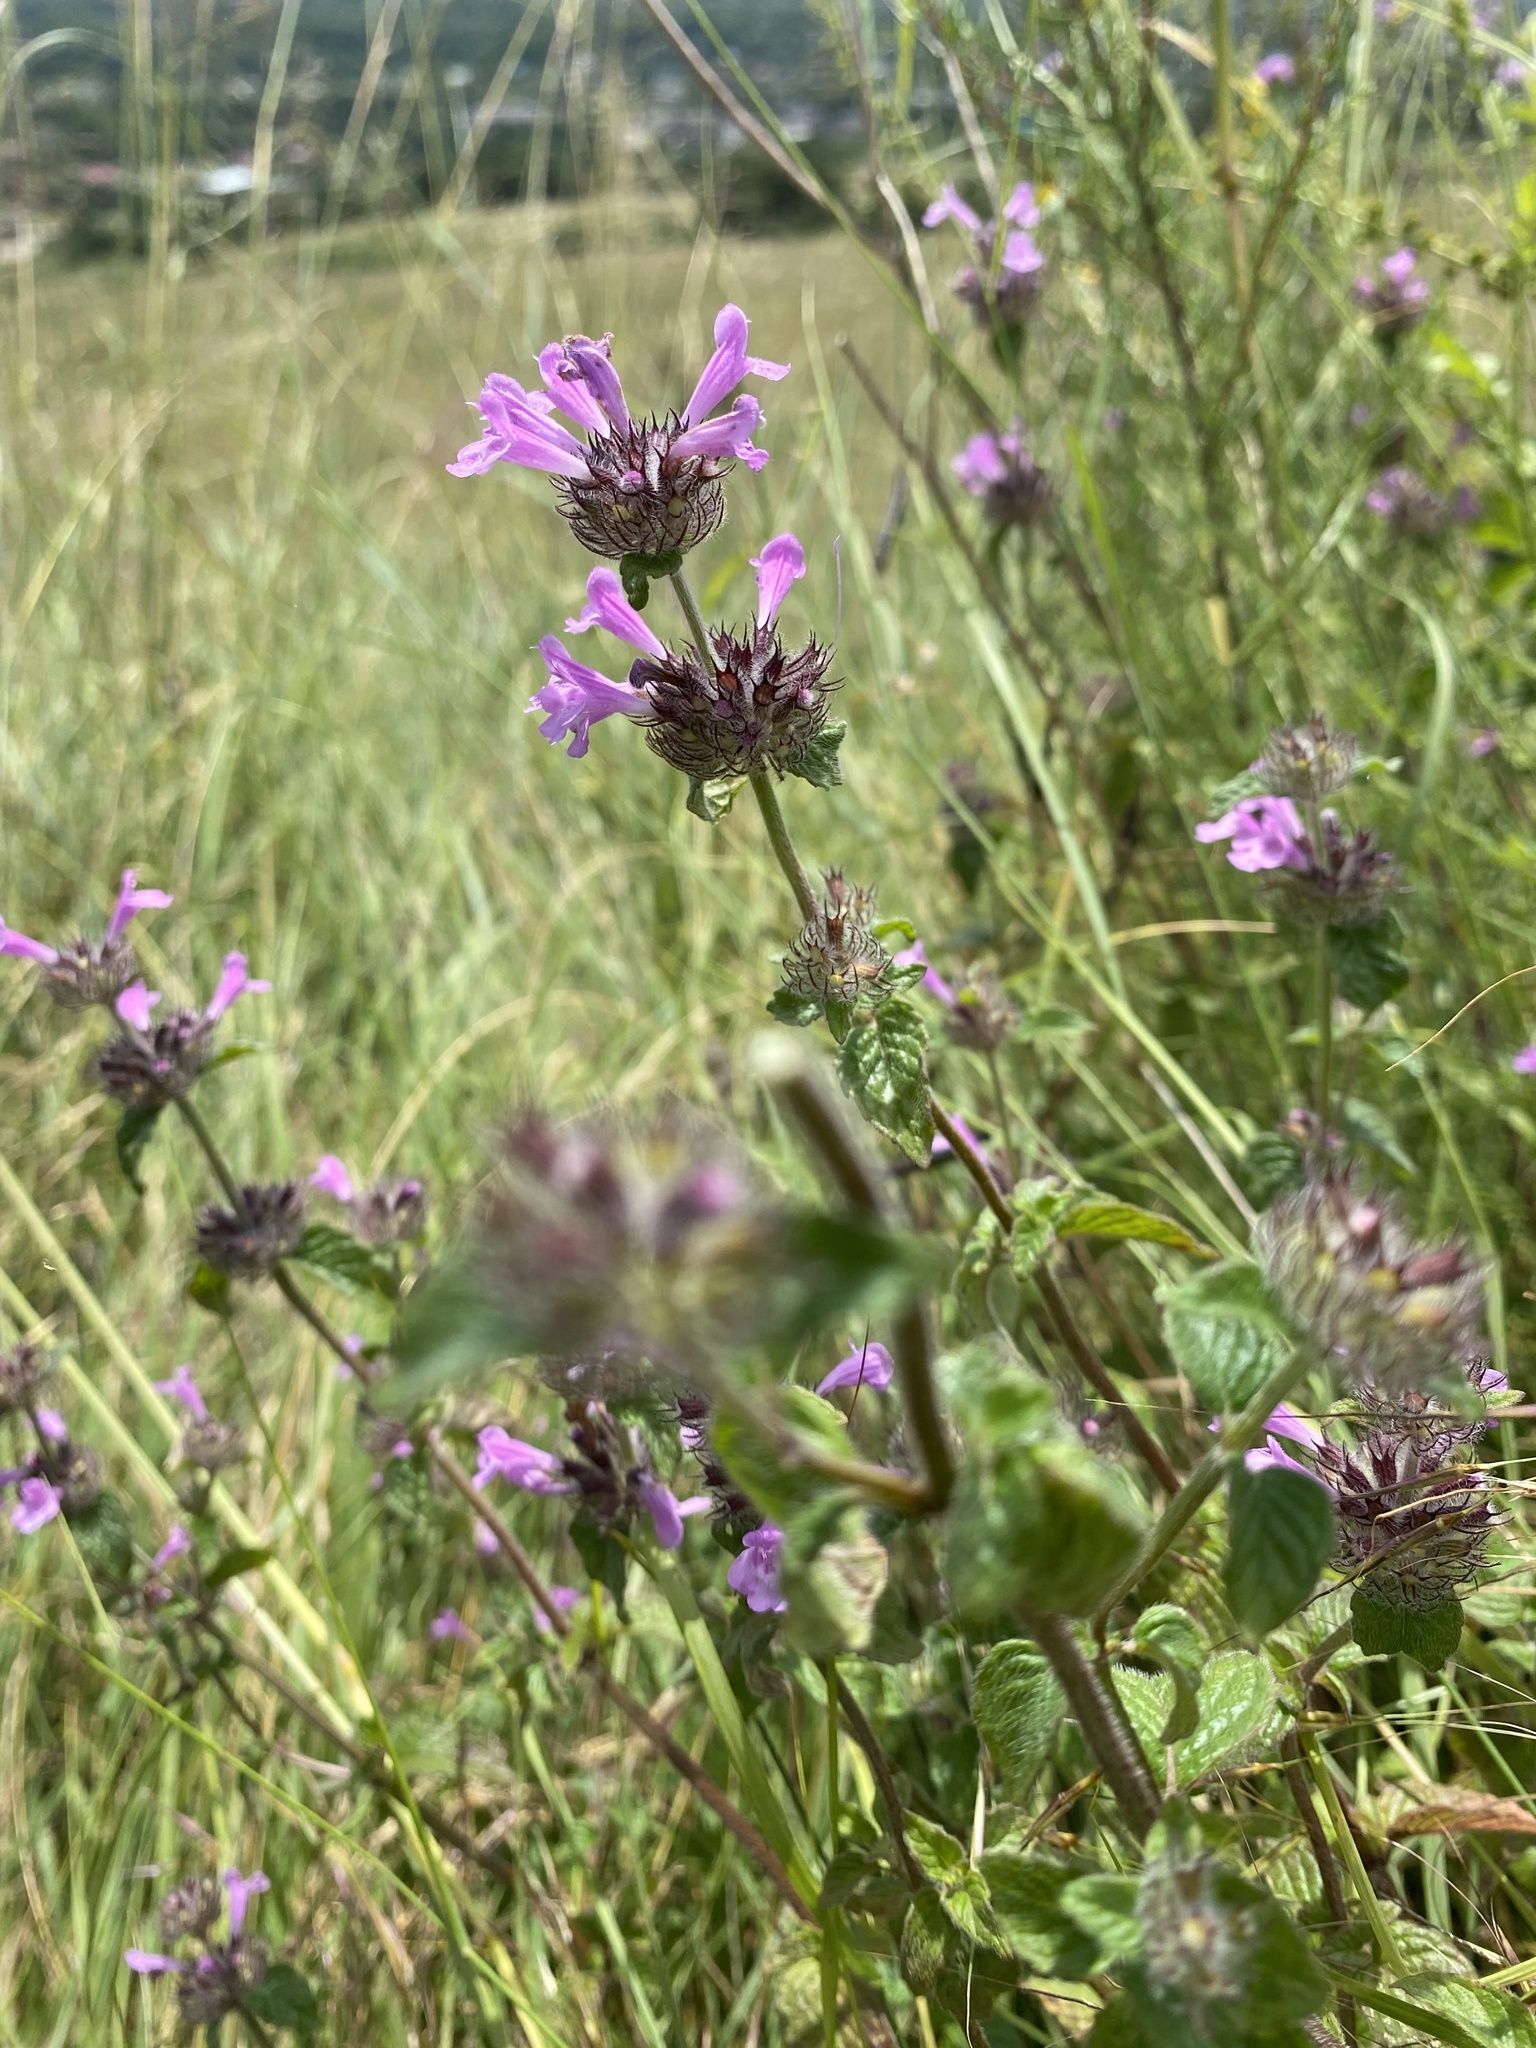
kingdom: Plantae
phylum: Tracheophyta
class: Magnoliopsida
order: Lamiales
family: Lamiaceae
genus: Clinopodium
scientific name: Clinopodium caucasicum
